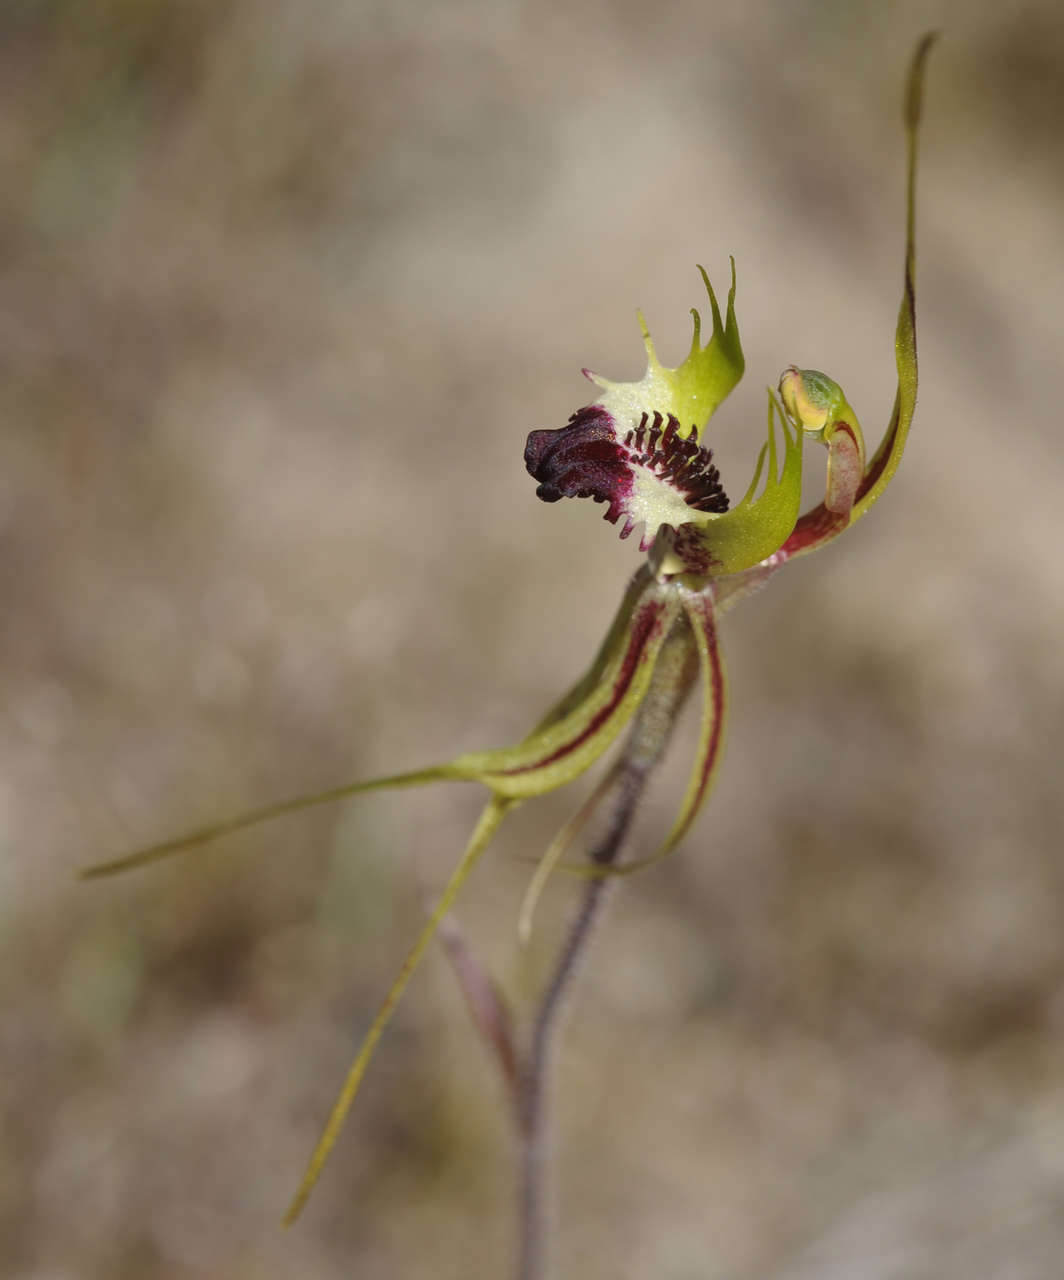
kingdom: Plantae
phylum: Tracheophyta
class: Liliopsida
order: Asparagales
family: Orchidaceae
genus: Caladenia
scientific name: Caladenia tentaculata
